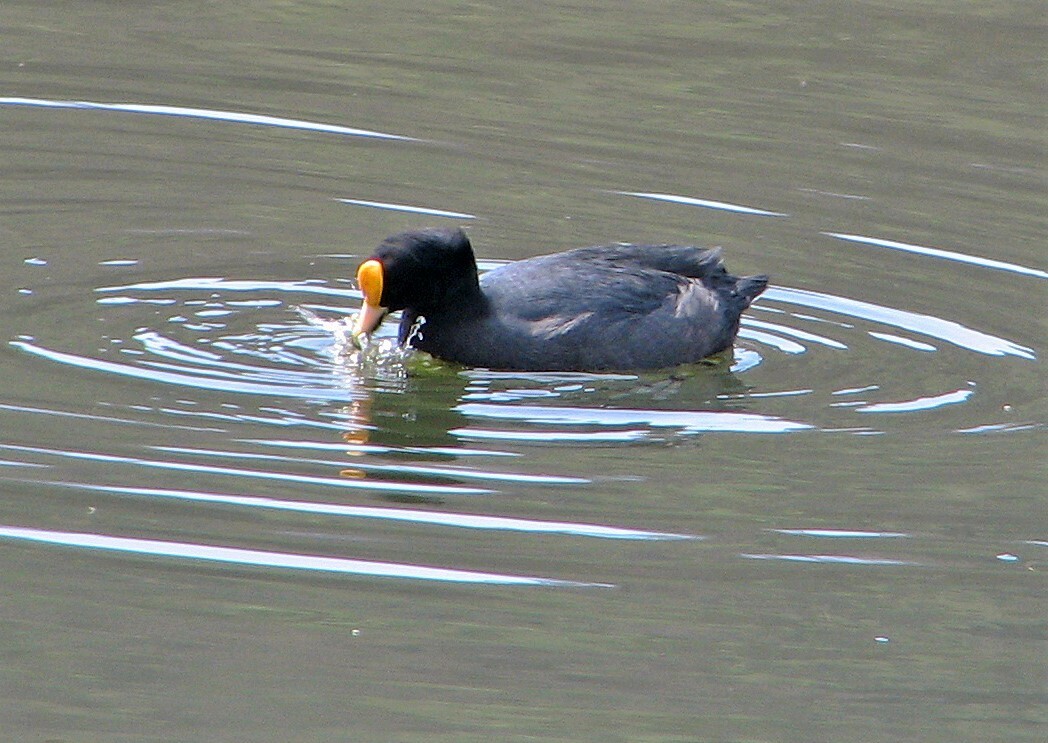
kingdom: Animalia
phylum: Chordata
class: Aves
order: Gruiformes
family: Rallidae
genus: Fulica
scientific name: Fulica leucoptera
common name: White-winged coot
